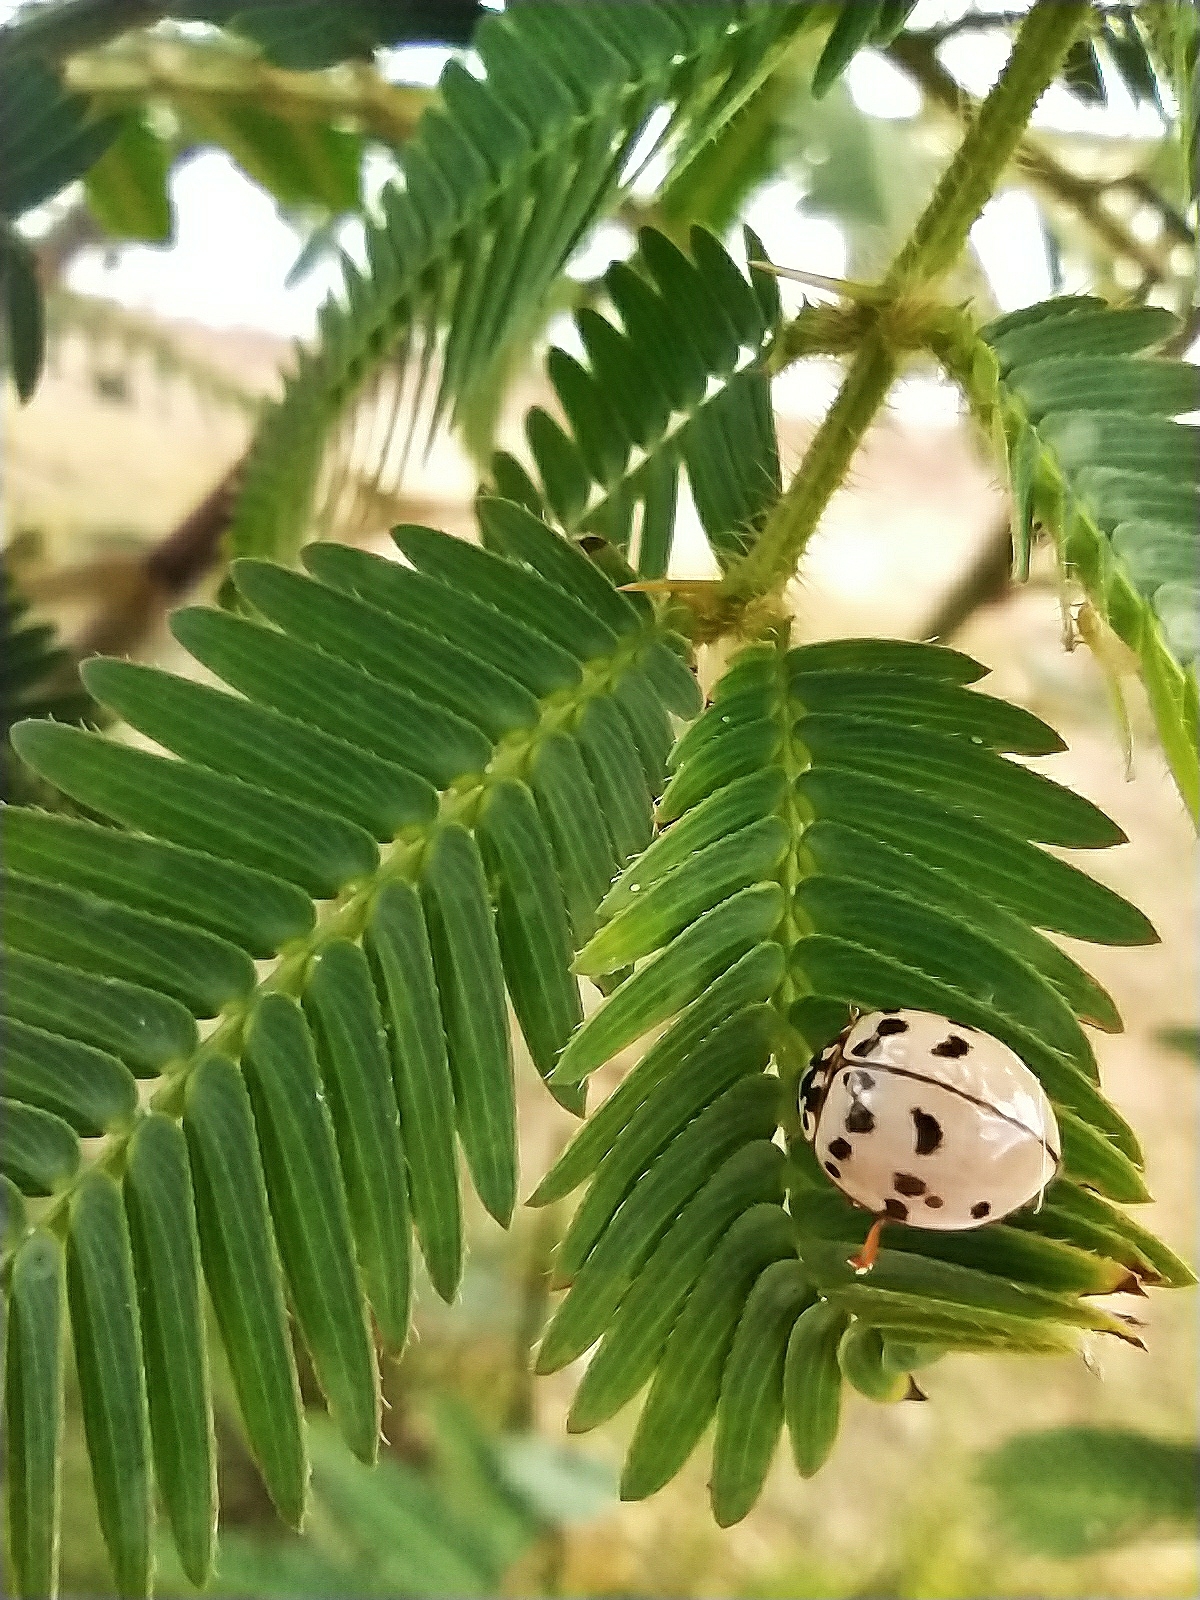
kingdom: Animalia
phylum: Arthropoda
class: Insecta
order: Coleoptera
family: Coccinellidae
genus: Olla
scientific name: Olla v-nigrum
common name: Ashy gray lady beetle
